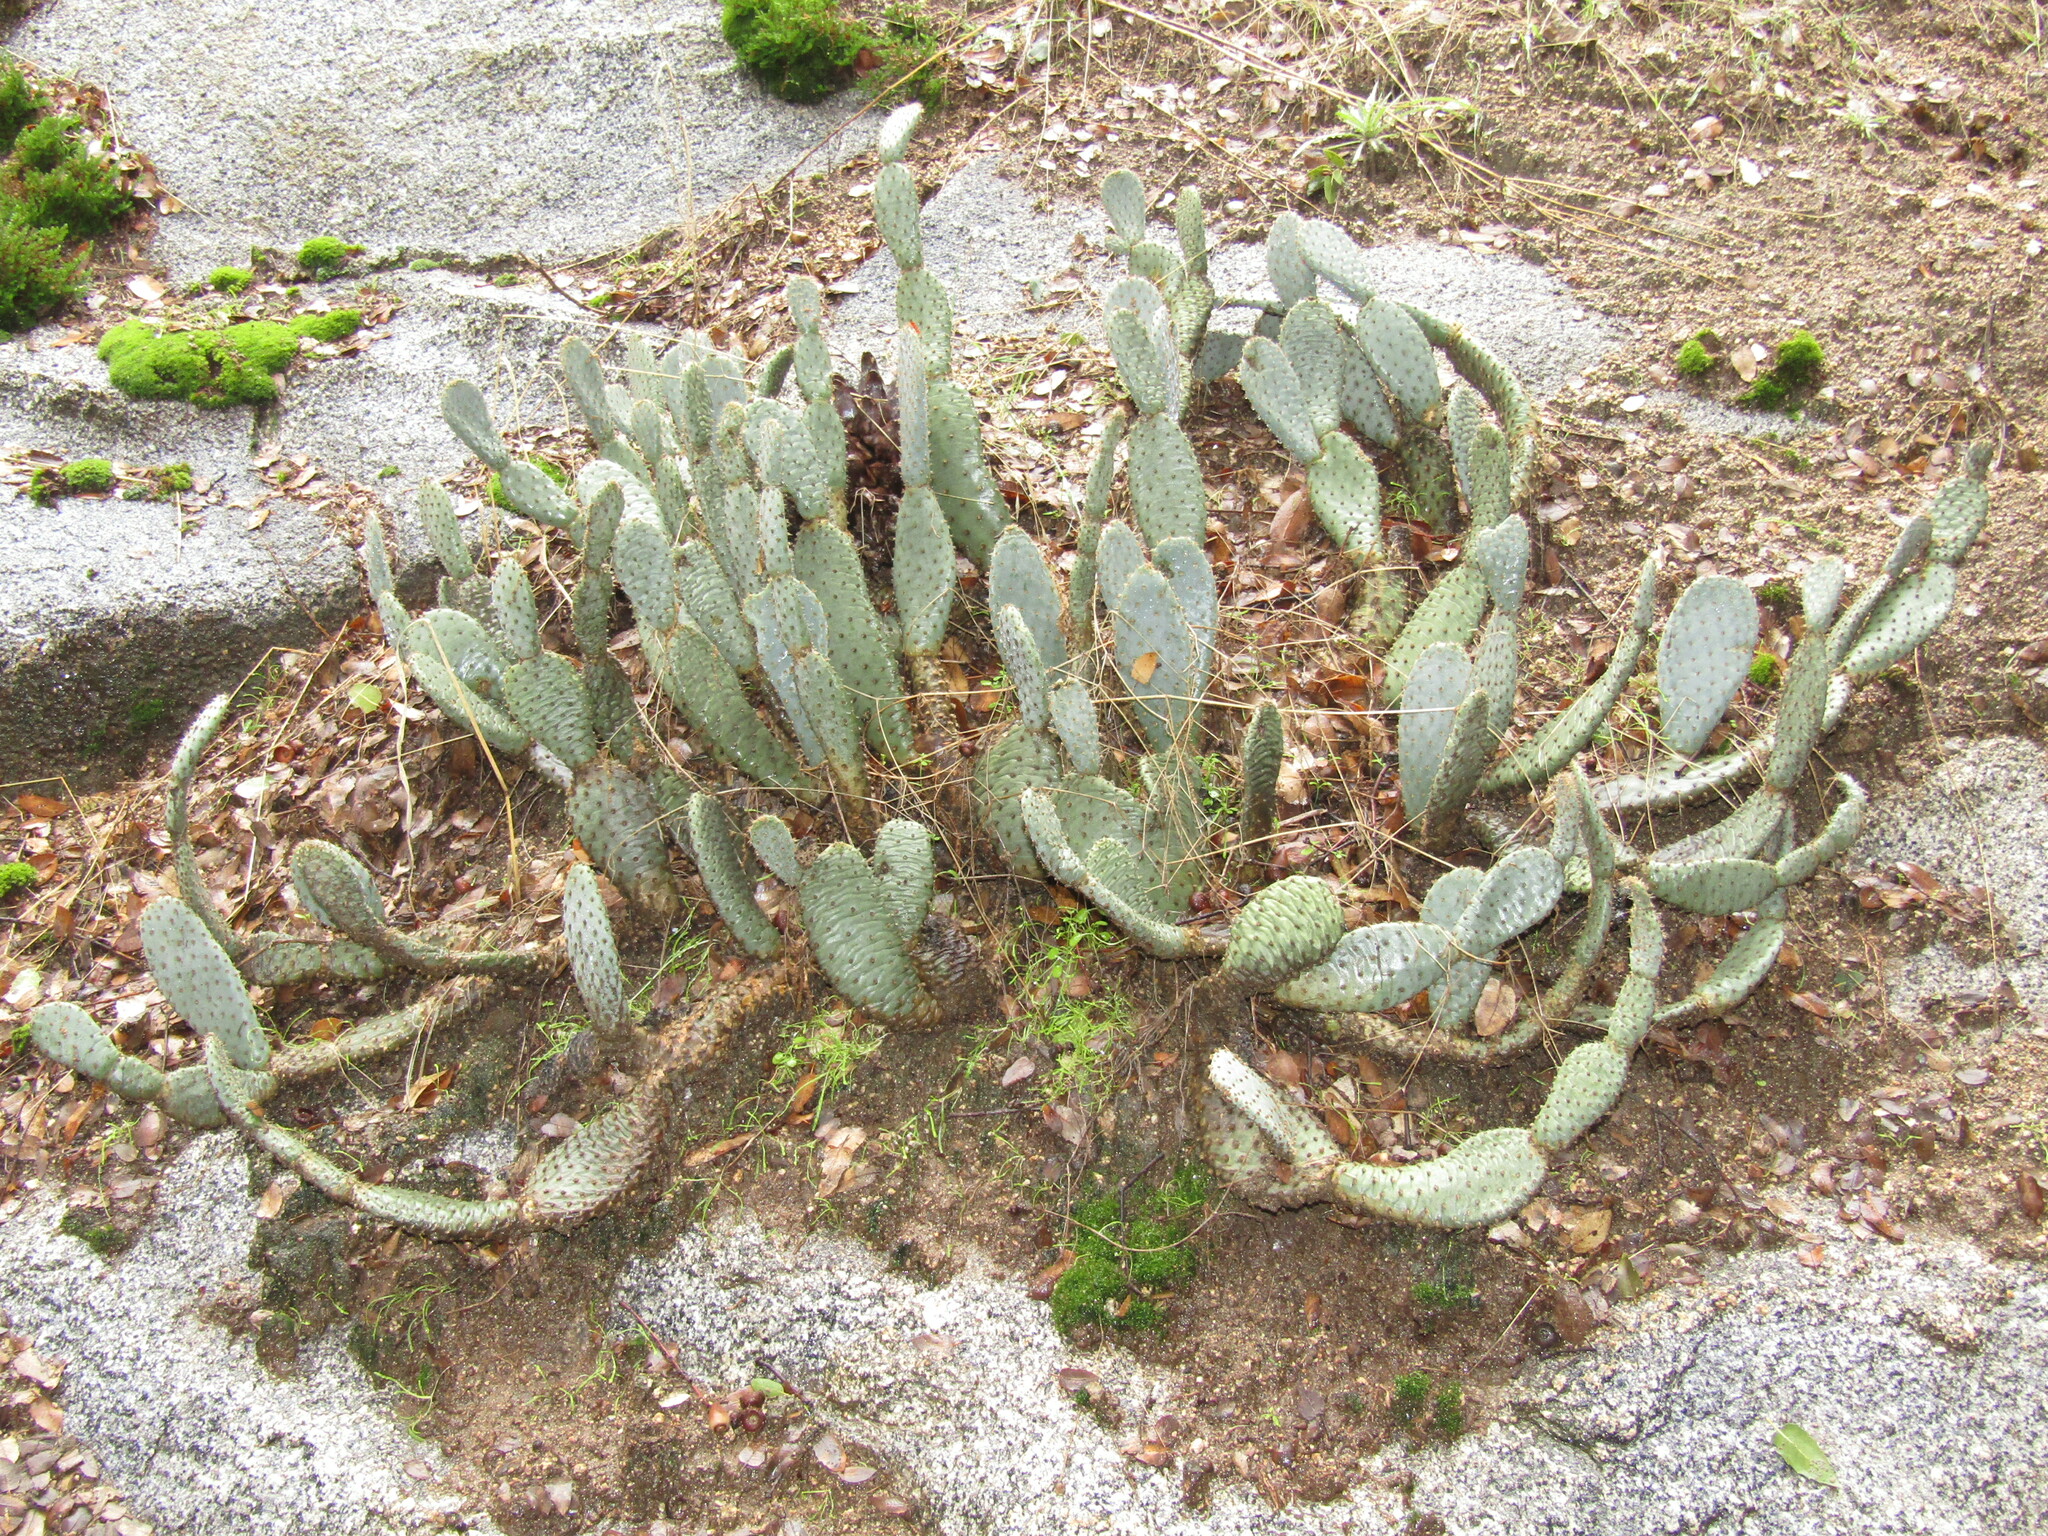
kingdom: Plantae
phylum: Tracheophyta
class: Magnoliopsida
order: Caryophyllales
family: Cactaceae
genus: Opuntia
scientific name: Opuntia basilaris
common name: Beavertail prickly-pear
